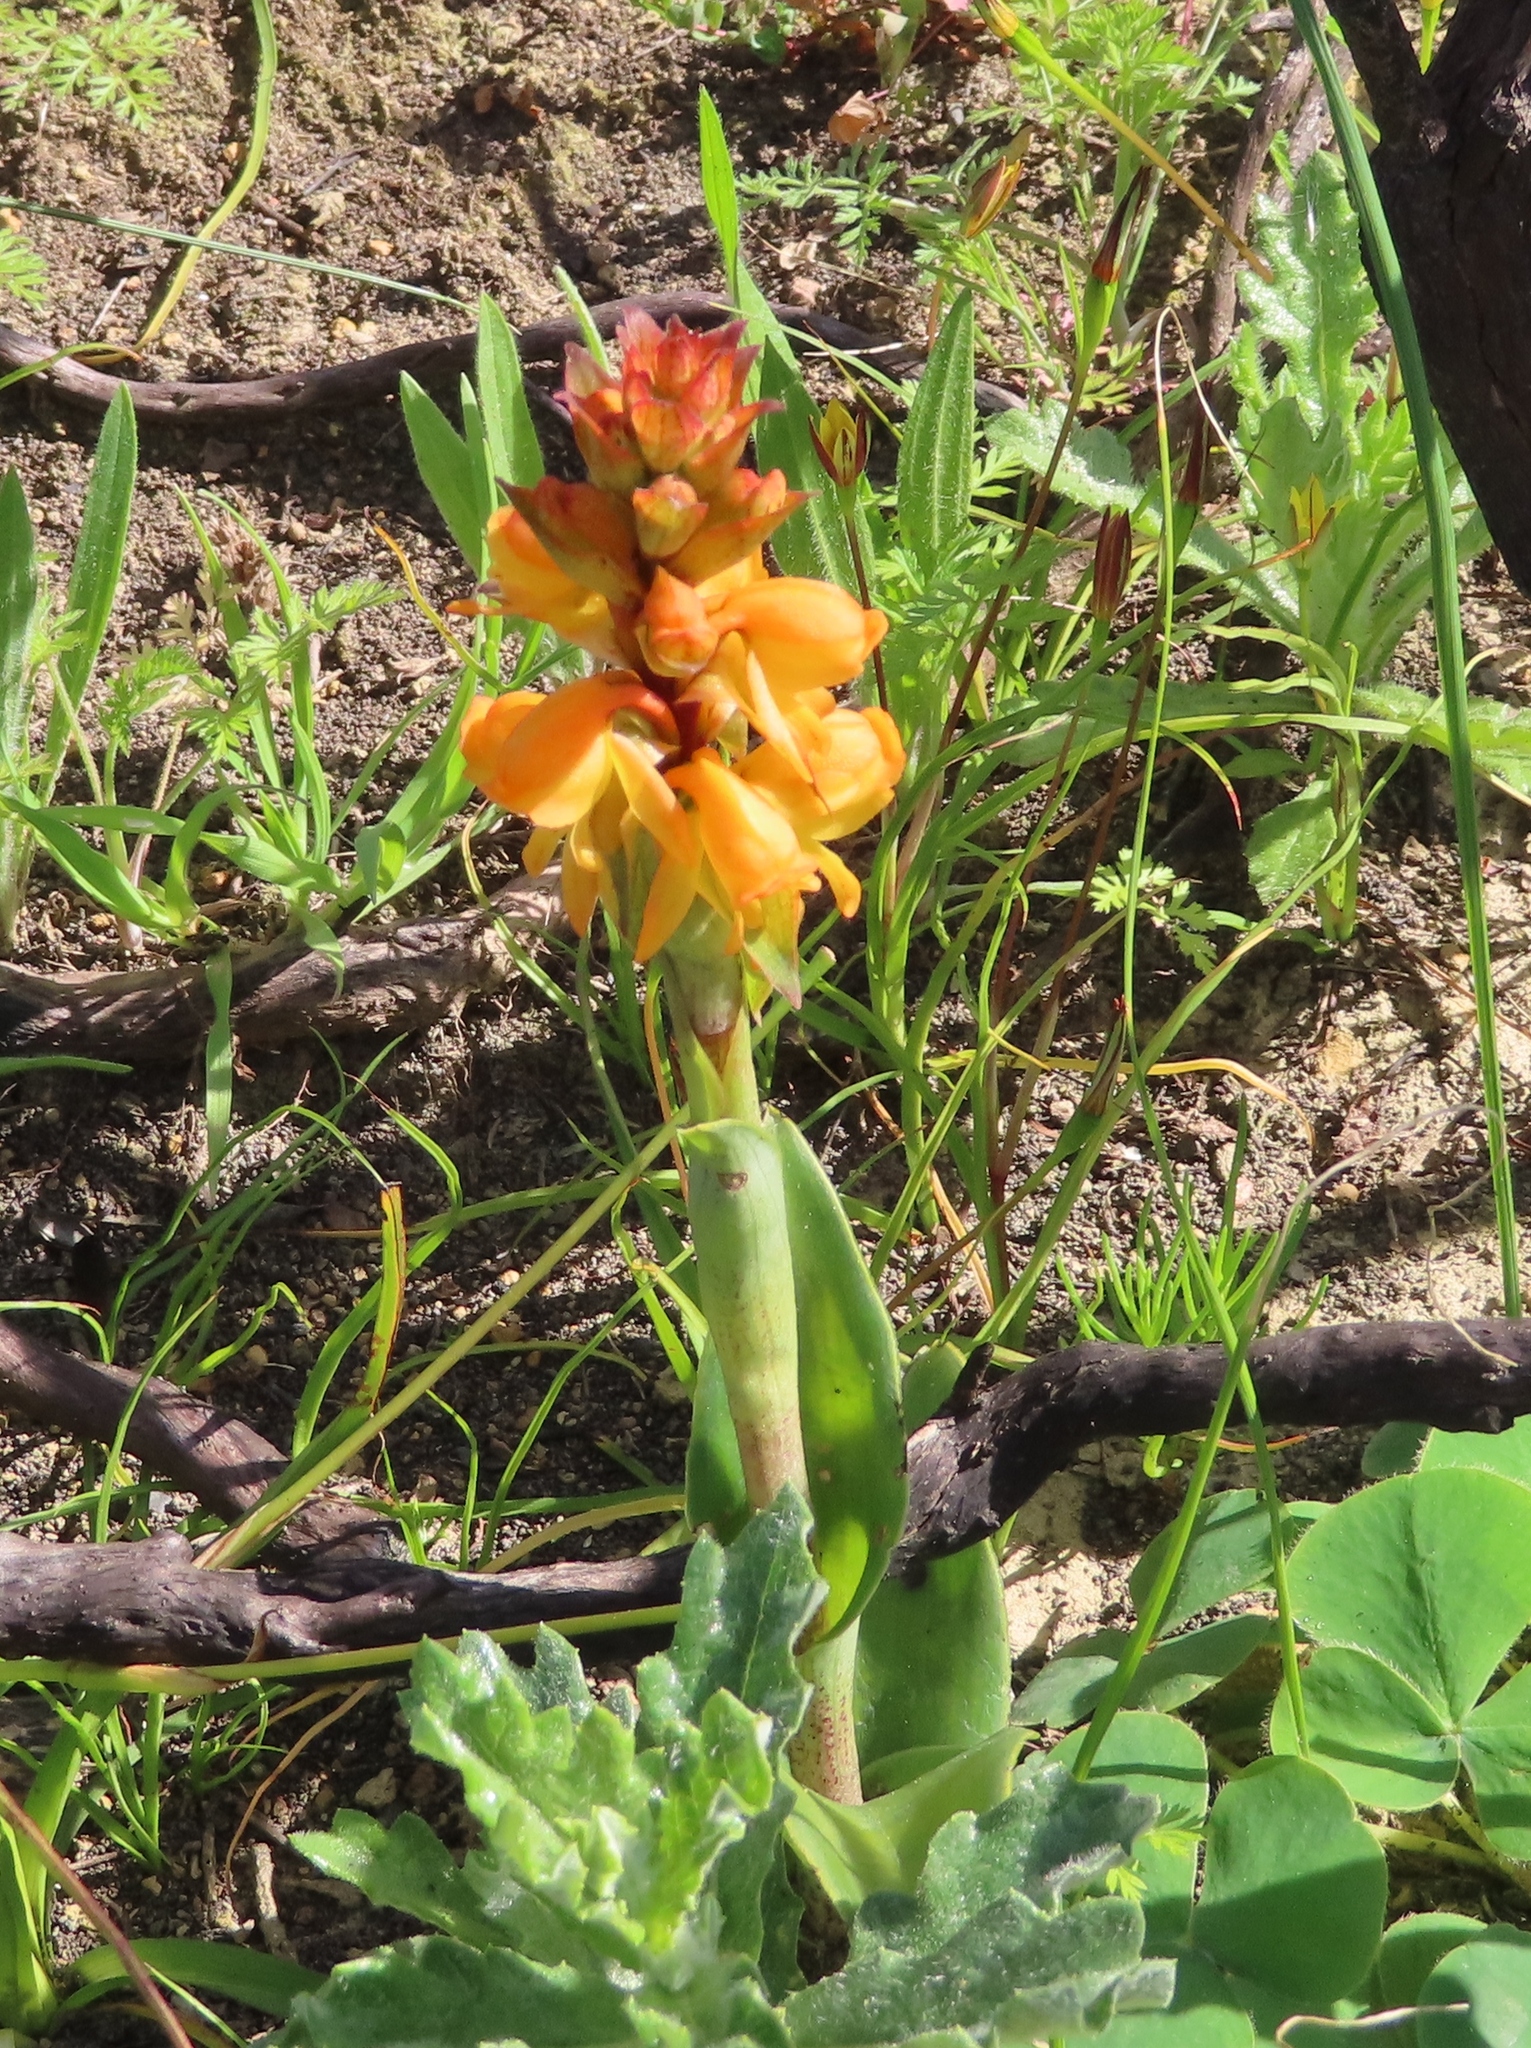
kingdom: Plantae
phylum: Tracheophyta
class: Liliopsida
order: Asparagales
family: Orchidaceae
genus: Satyrium
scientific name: Satyrium coriifolium
